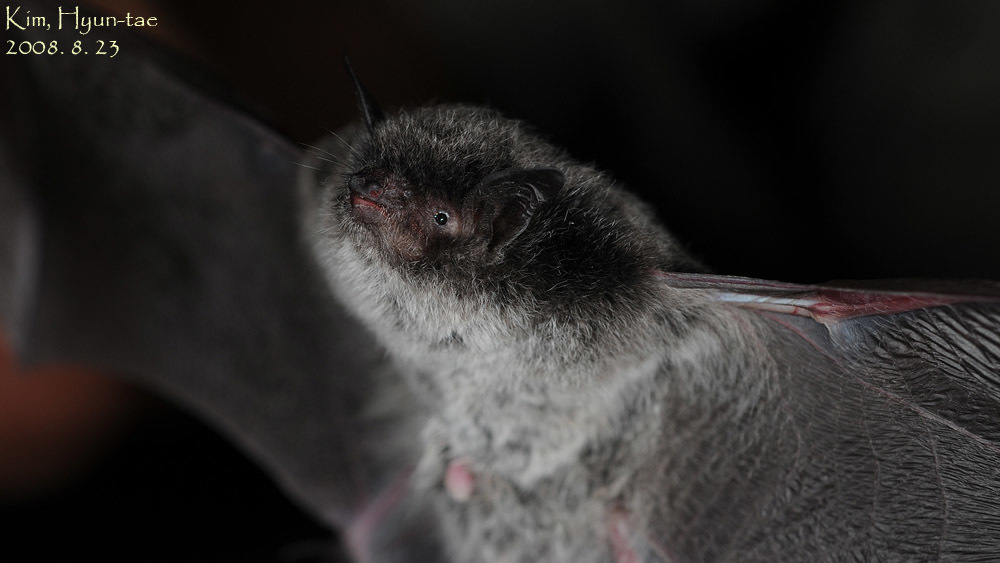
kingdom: Animalia
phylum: Chordata
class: Mammalia
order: Chiroptera
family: Vespertilionidae
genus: Myotis
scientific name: Myotis petax
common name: Russian myotis
